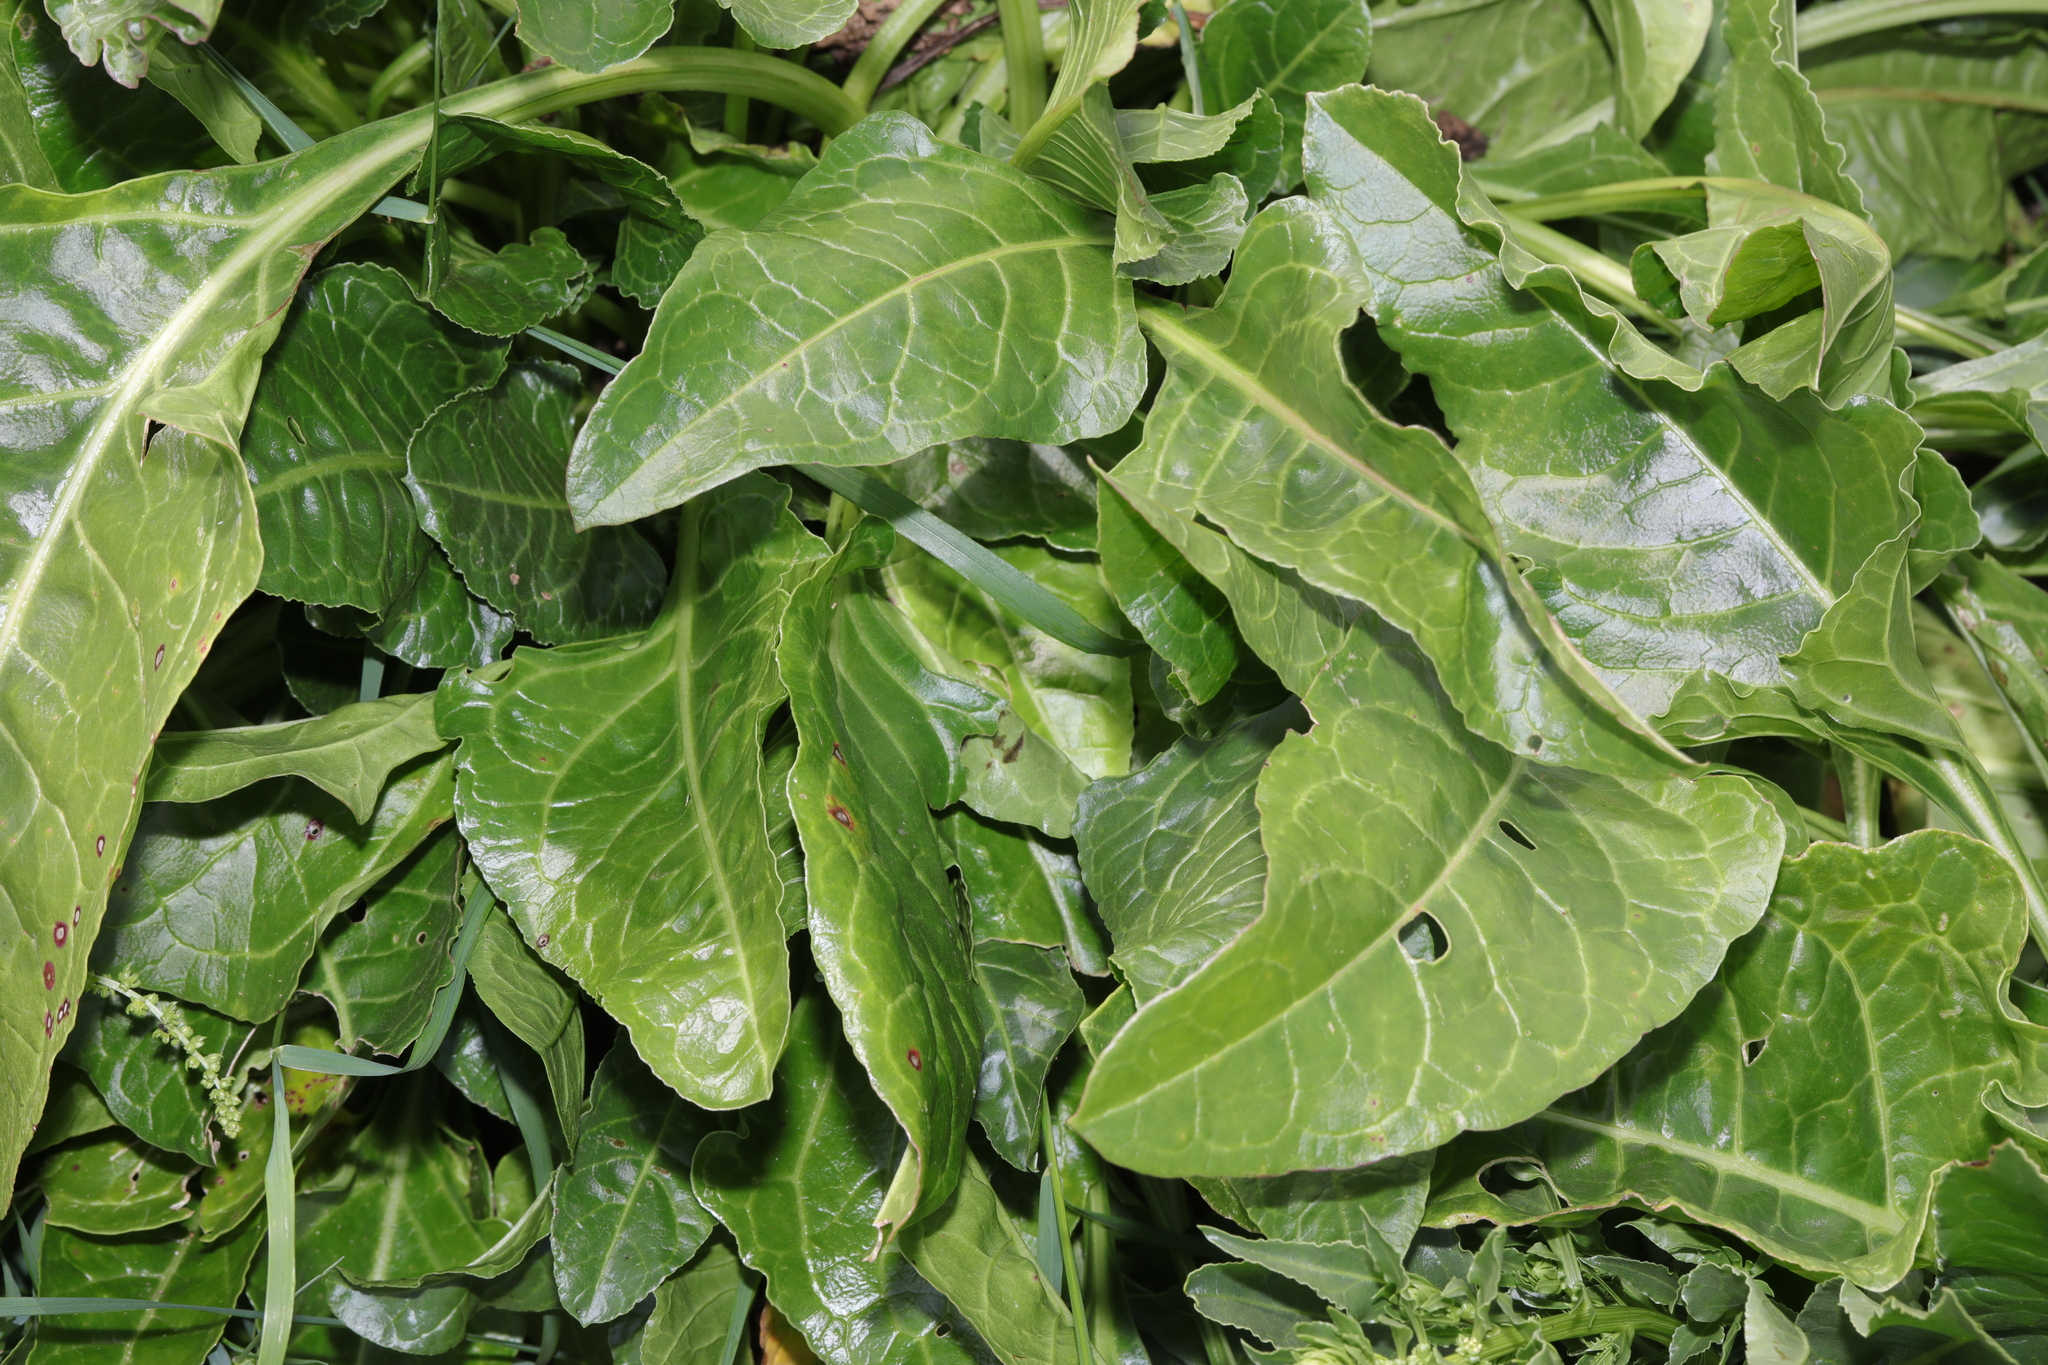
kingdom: Plantae
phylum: Tracheophyta
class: Magnoliopsida
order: Caryophyllales
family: Amaranthaceae
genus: Beta
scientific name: Beta vulgaris
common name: Beet
